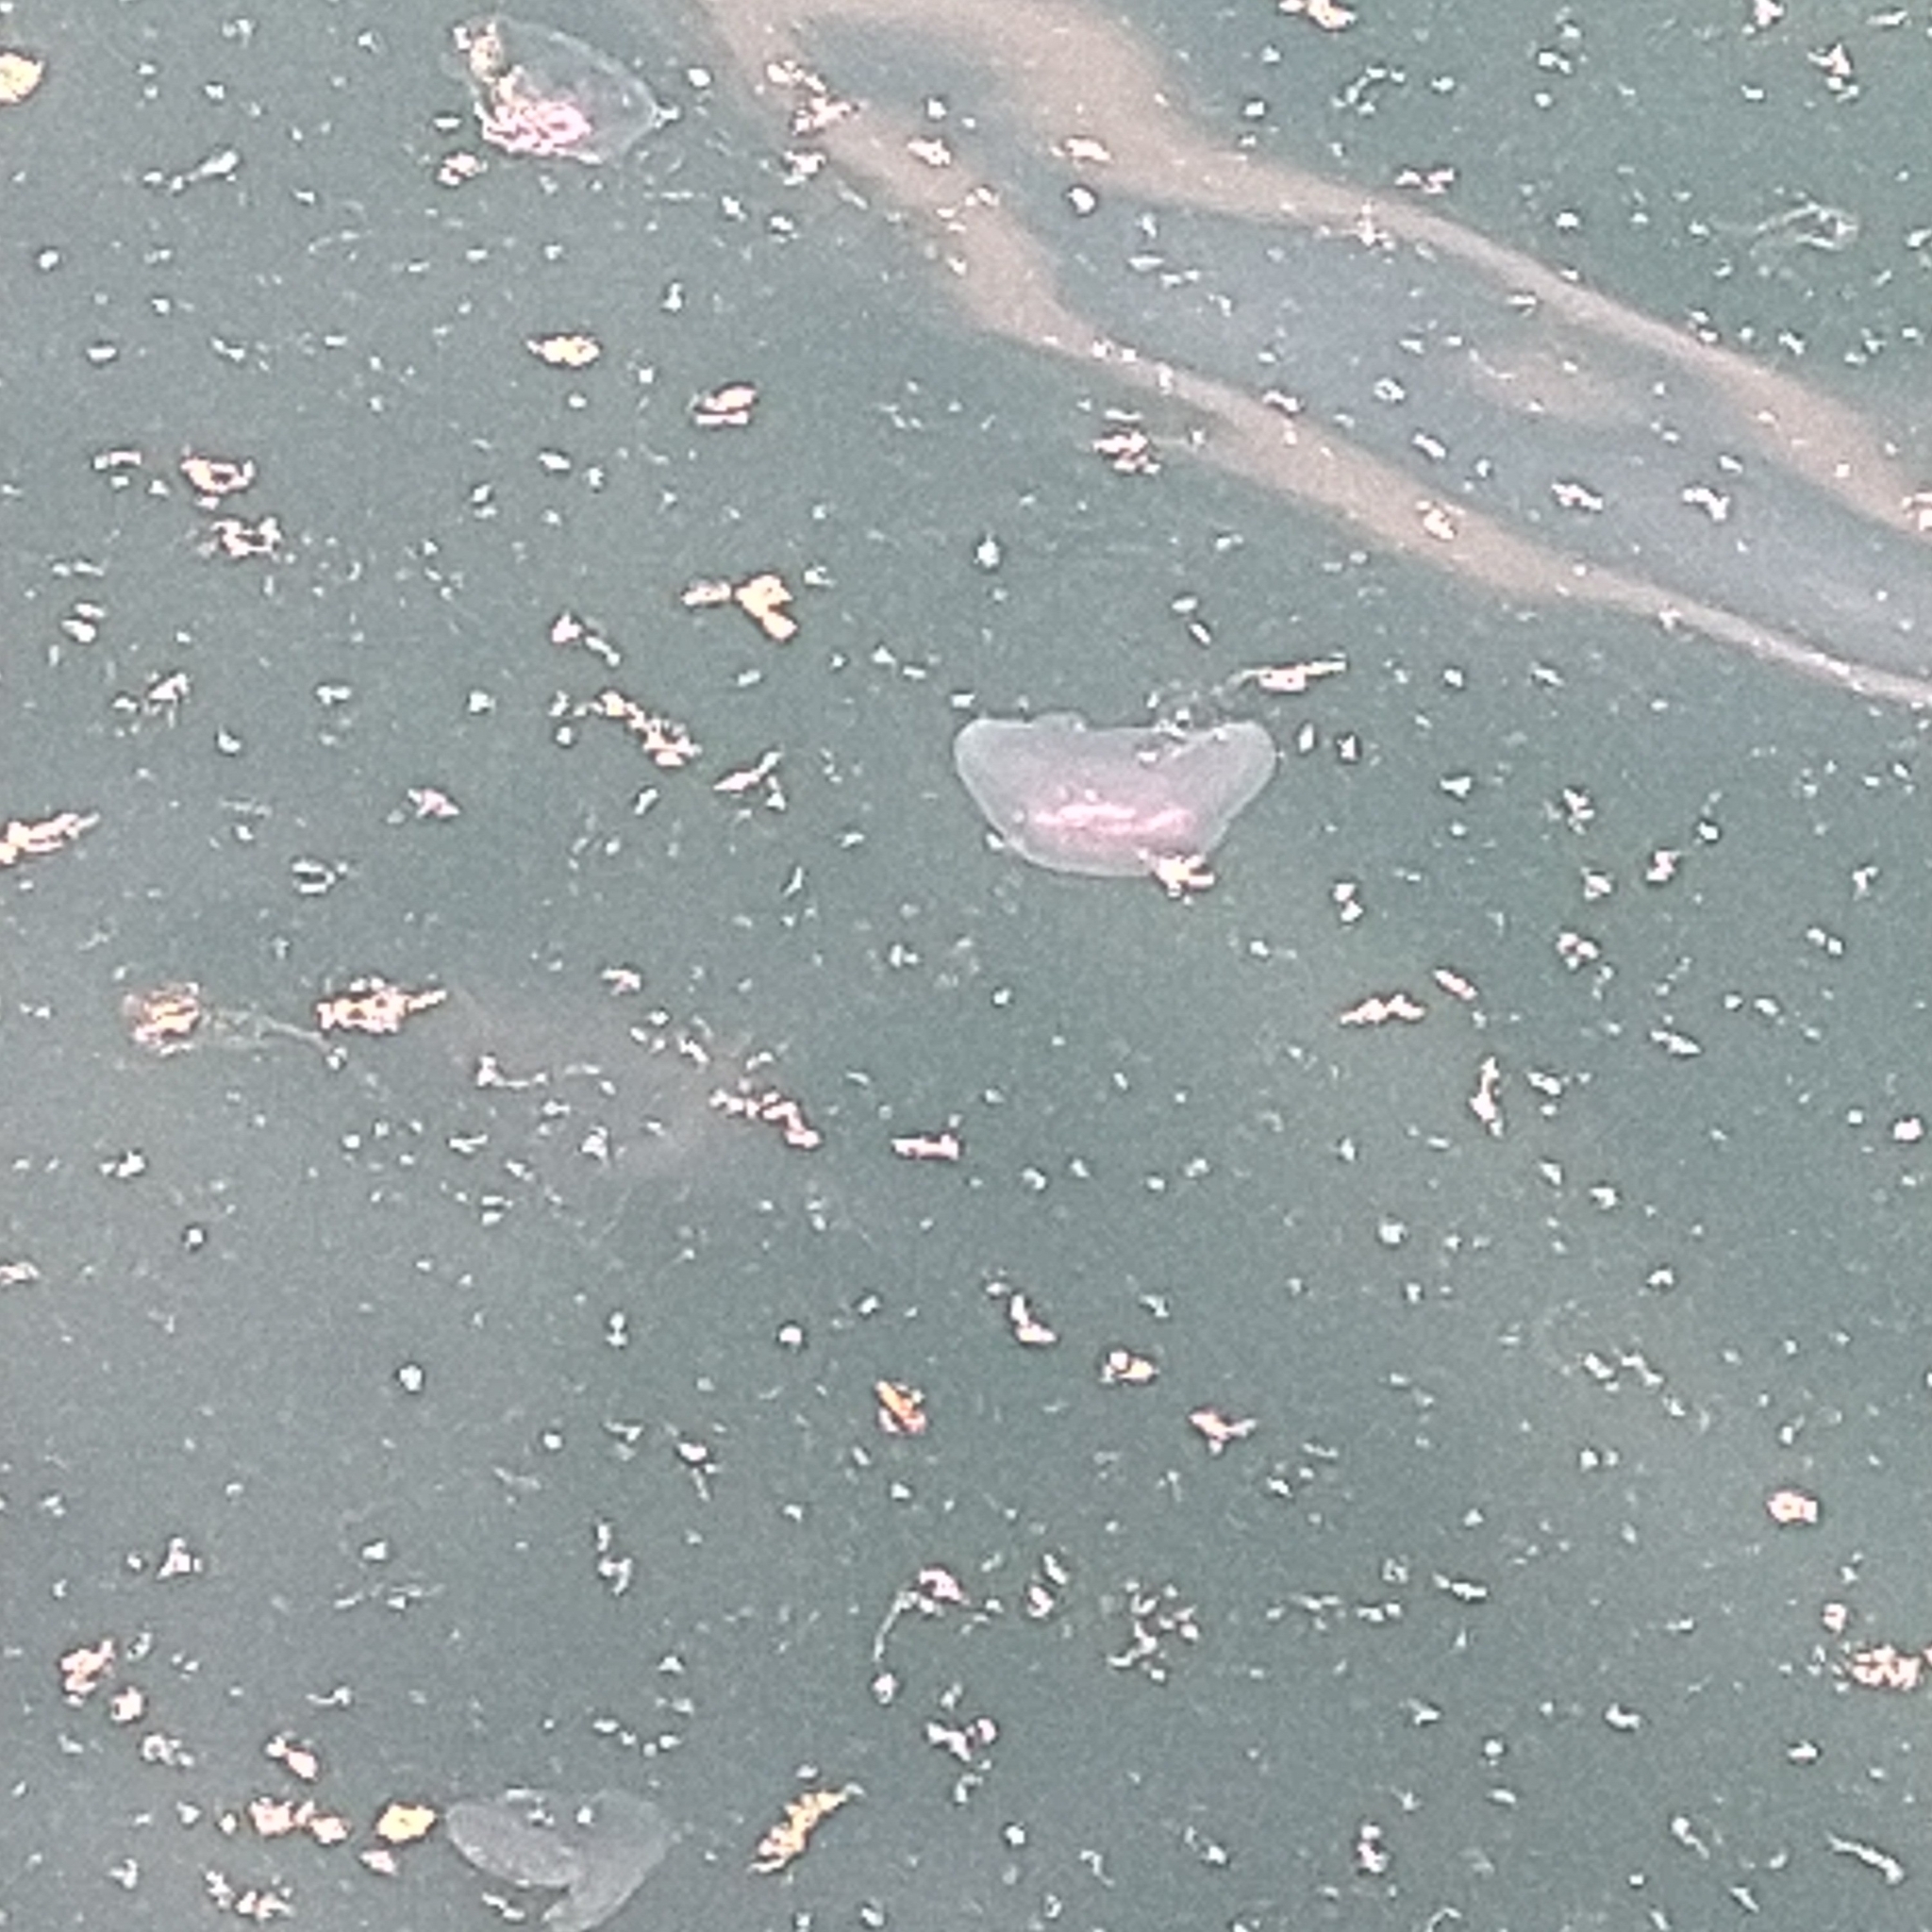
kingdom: Animalia
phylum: Cnidaria
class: Scyphozoa
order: Semaeostomeae
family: Ulmaridae
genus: Aurelia
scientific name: Aurelia aurita
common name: Moon jellyfish
